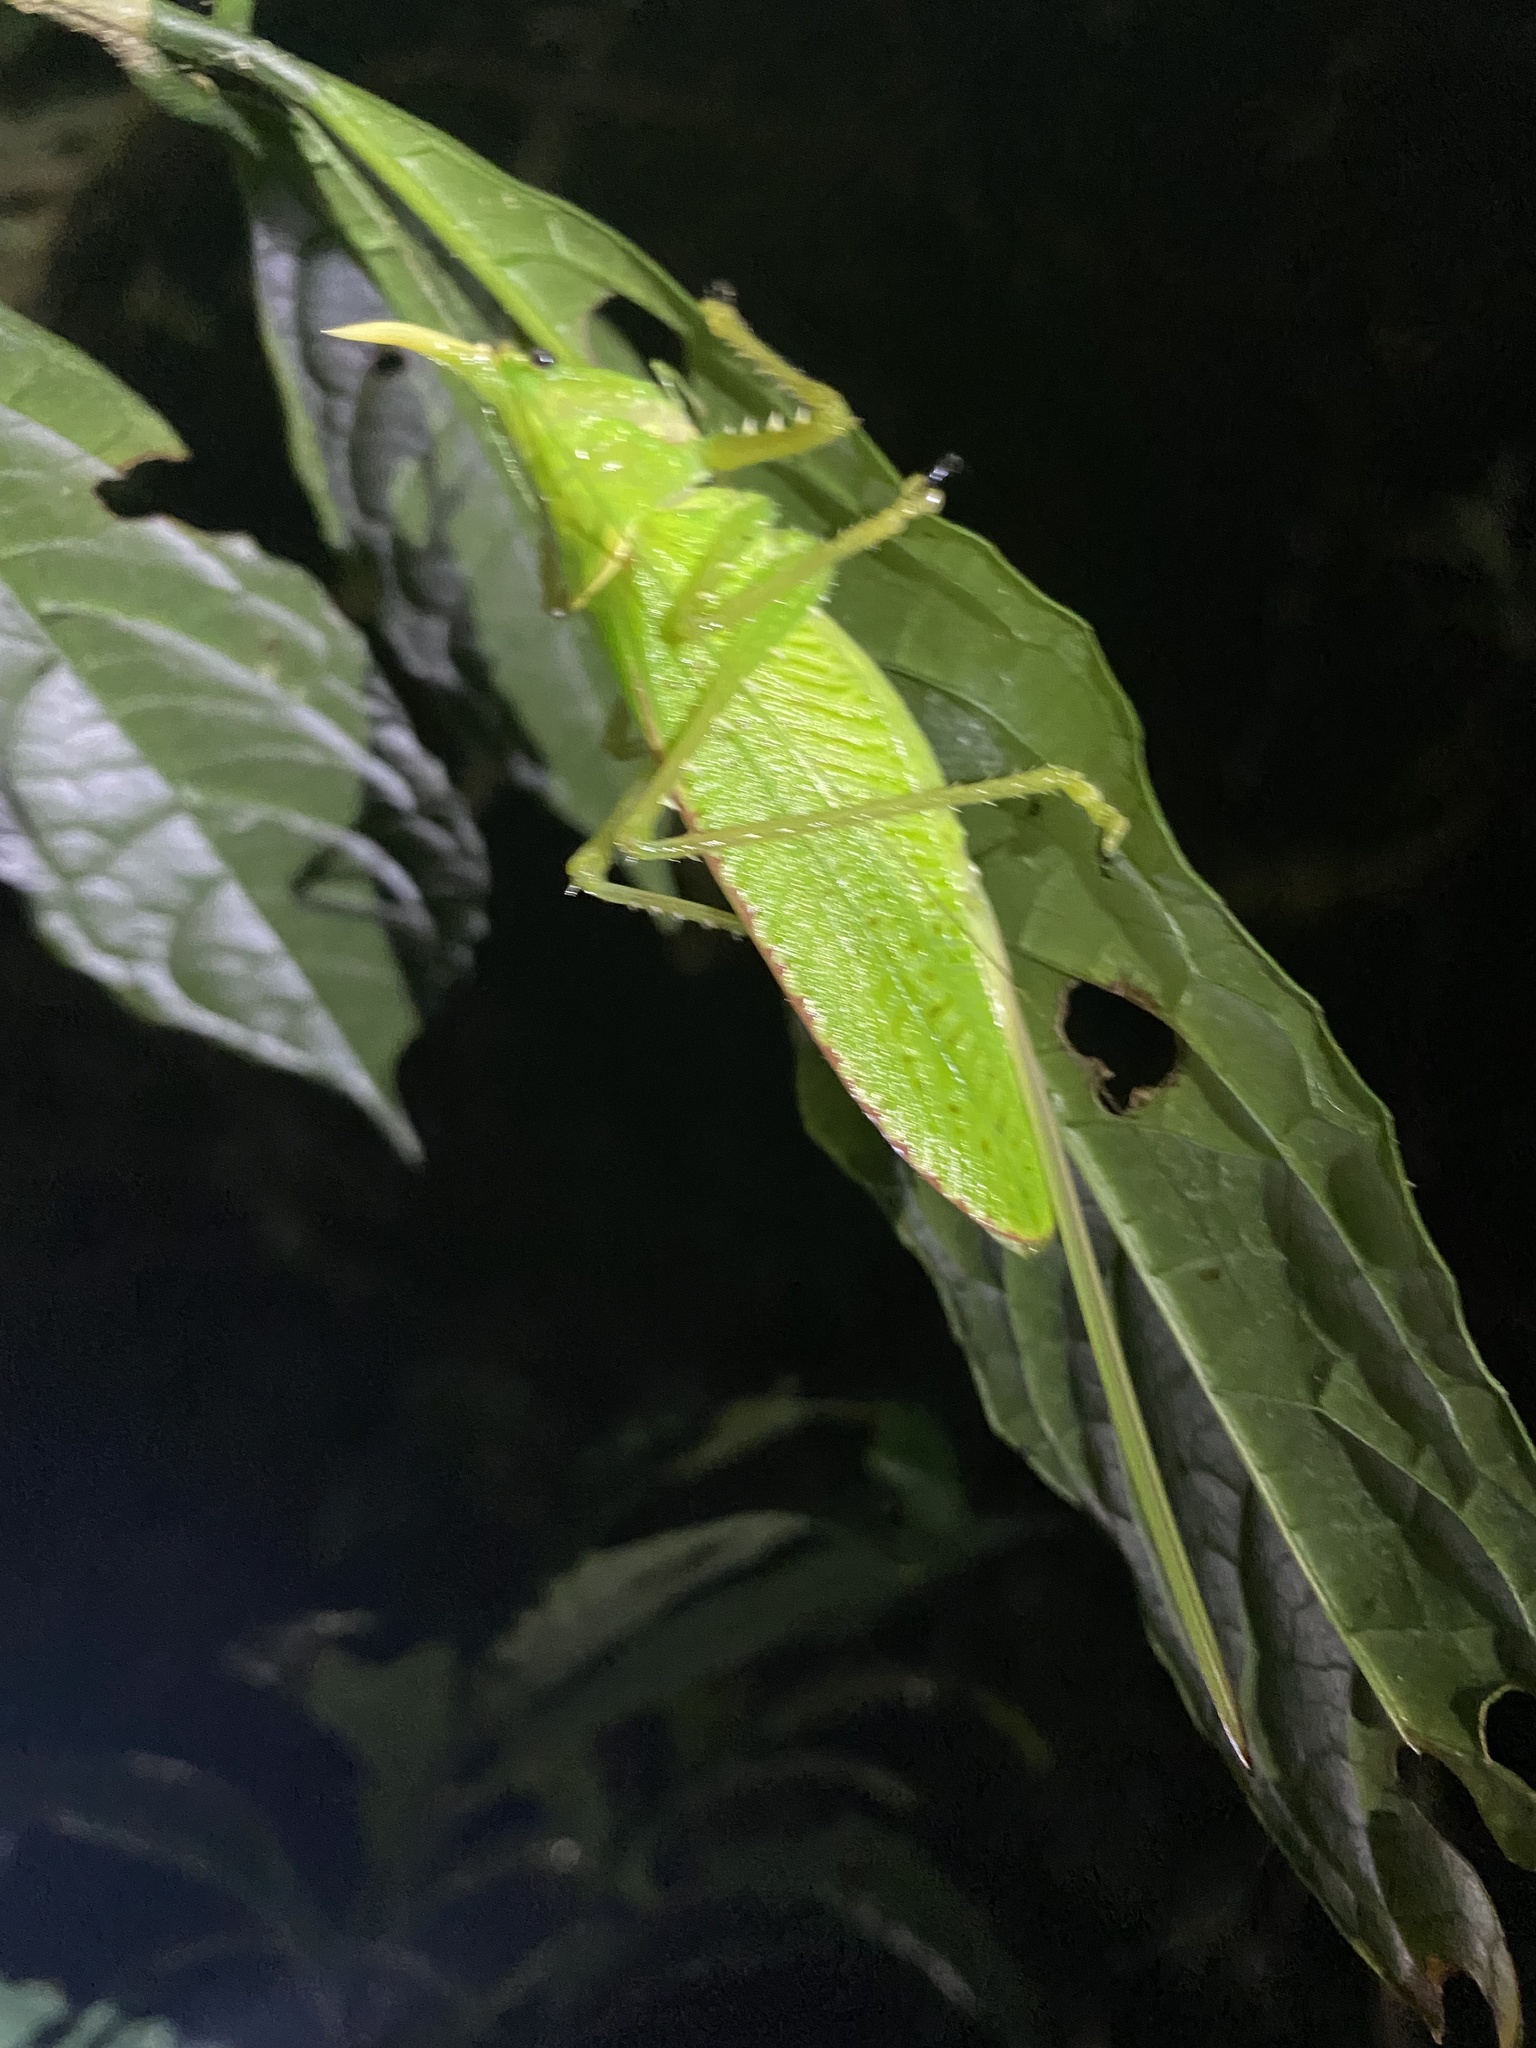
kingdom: Animalia
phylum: Arthropoda
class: Insecta
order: Orthoptera
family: Tettigoniidae
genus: Copiphora
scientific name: Copiphora rhinoceros
